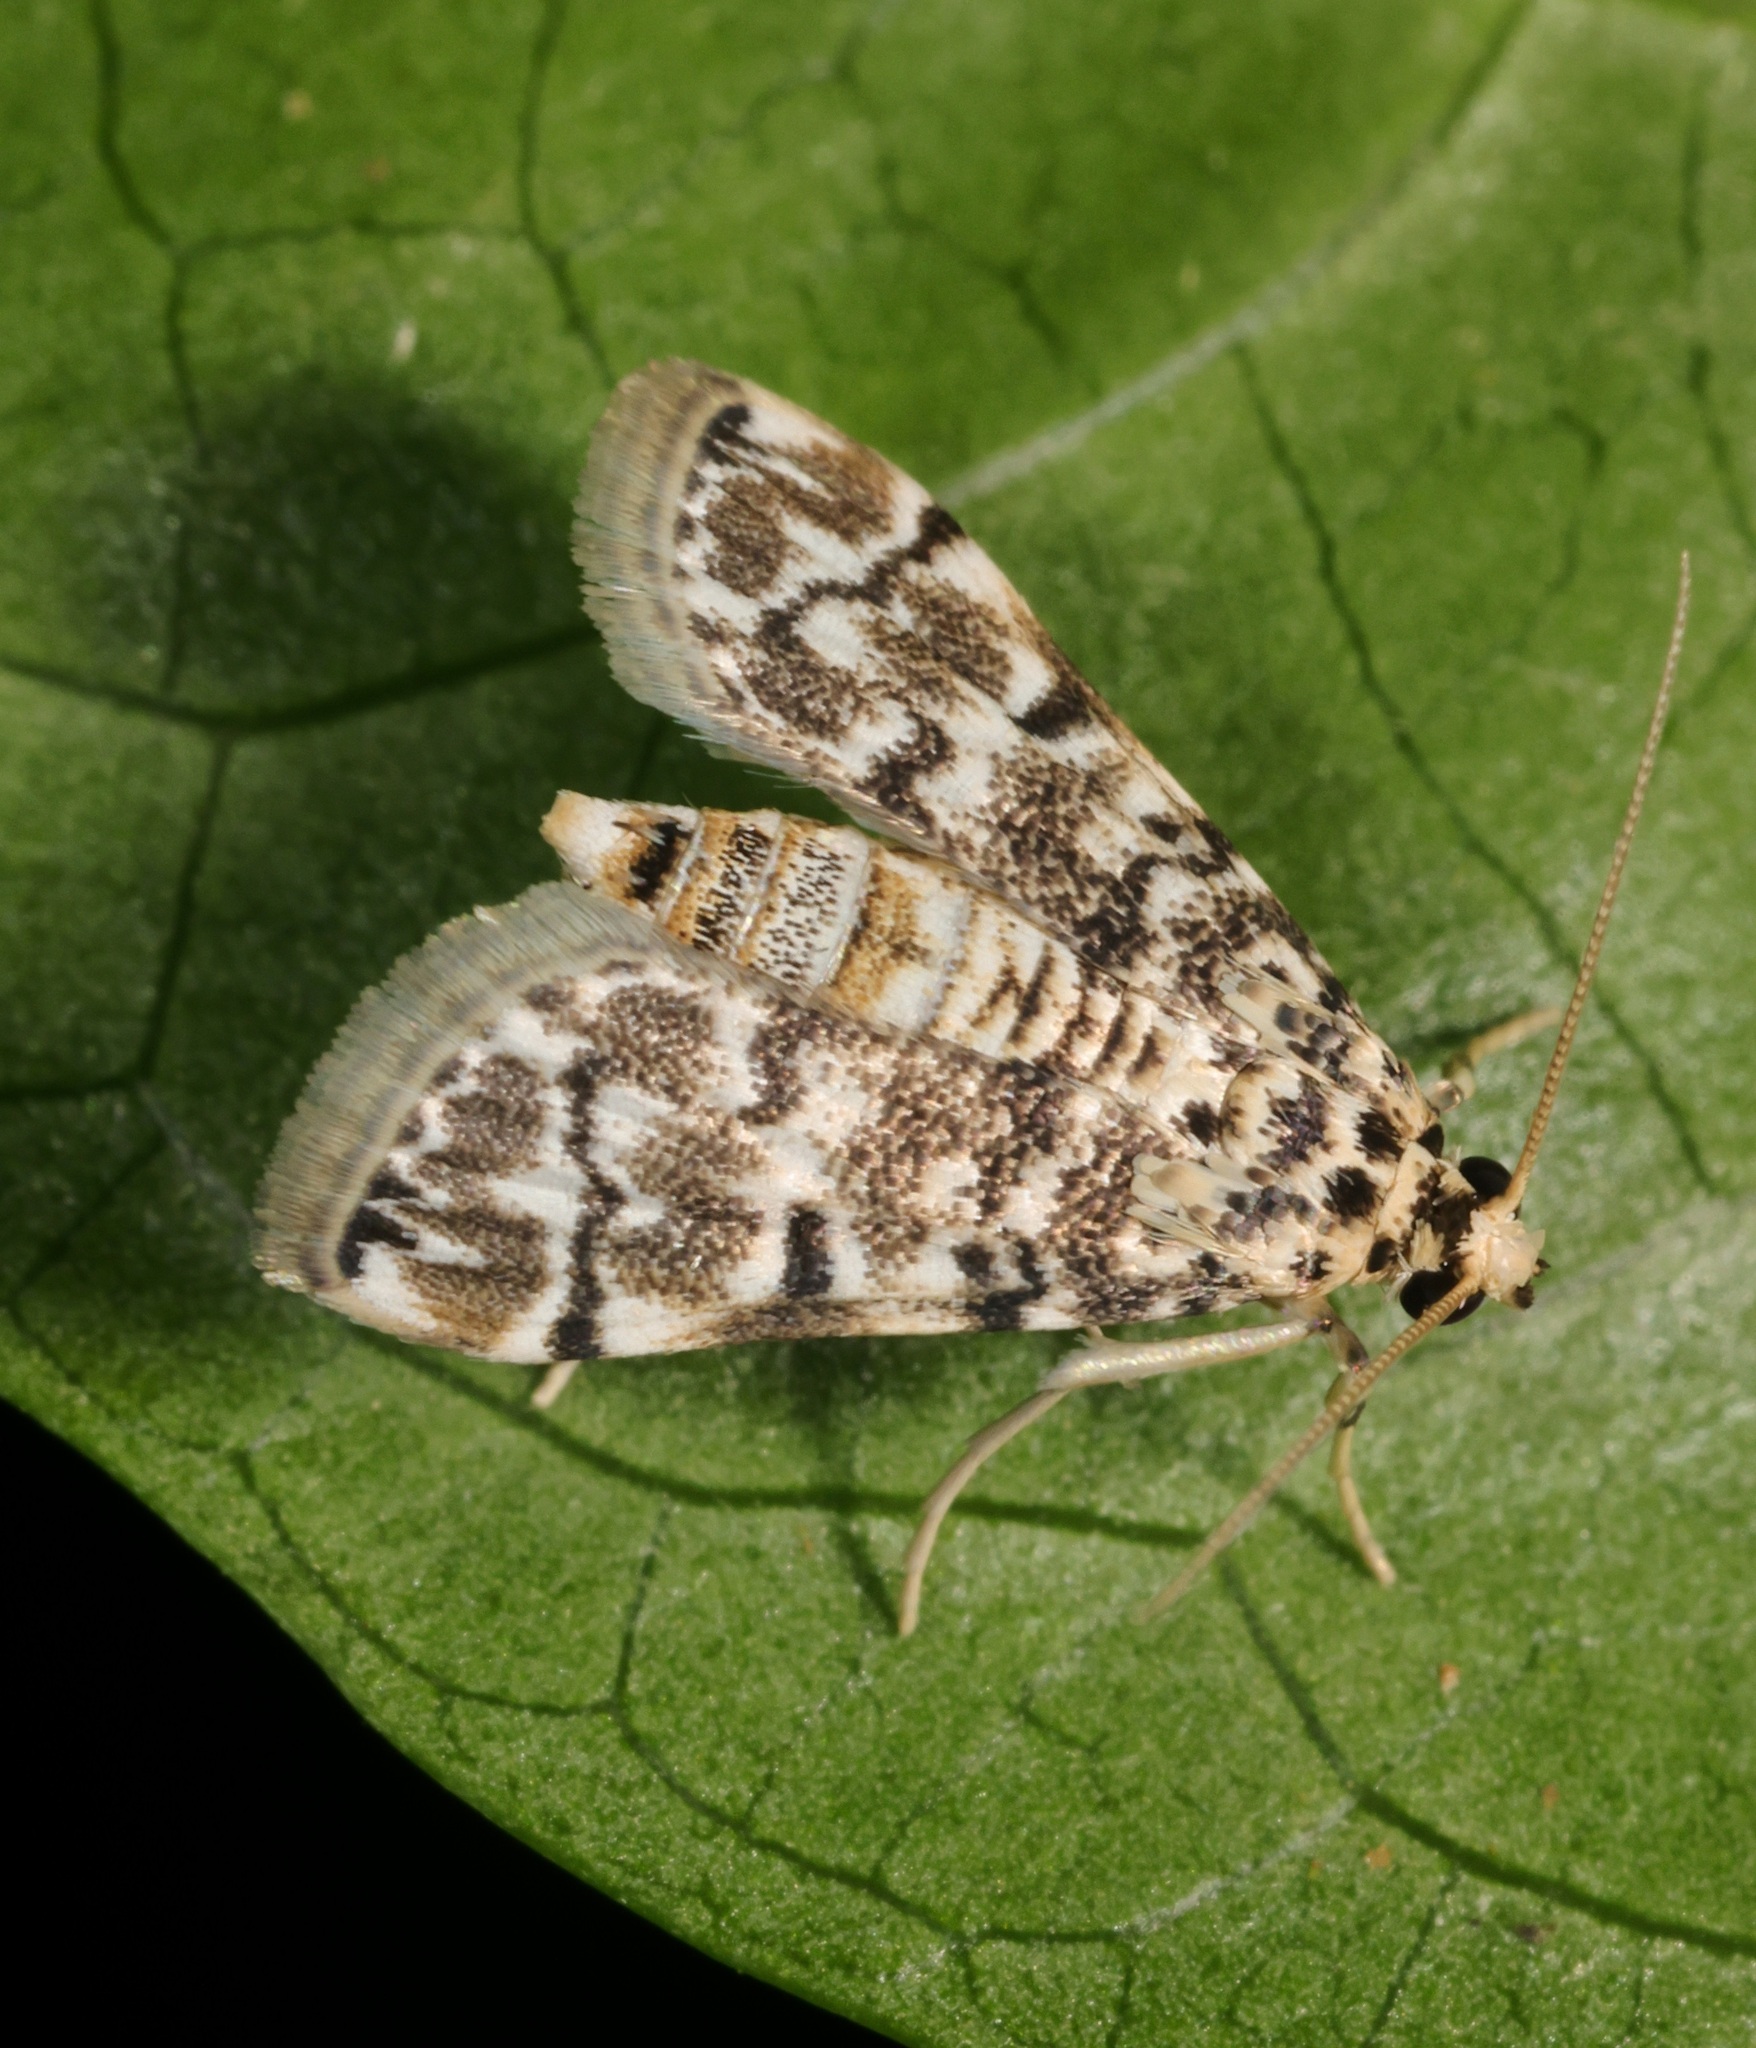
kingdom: Animalia
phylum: Arthropoda
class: Insecta
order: Lepidoptera
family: Crambidae
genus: Metoeca
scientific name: Metoeca foedalis
